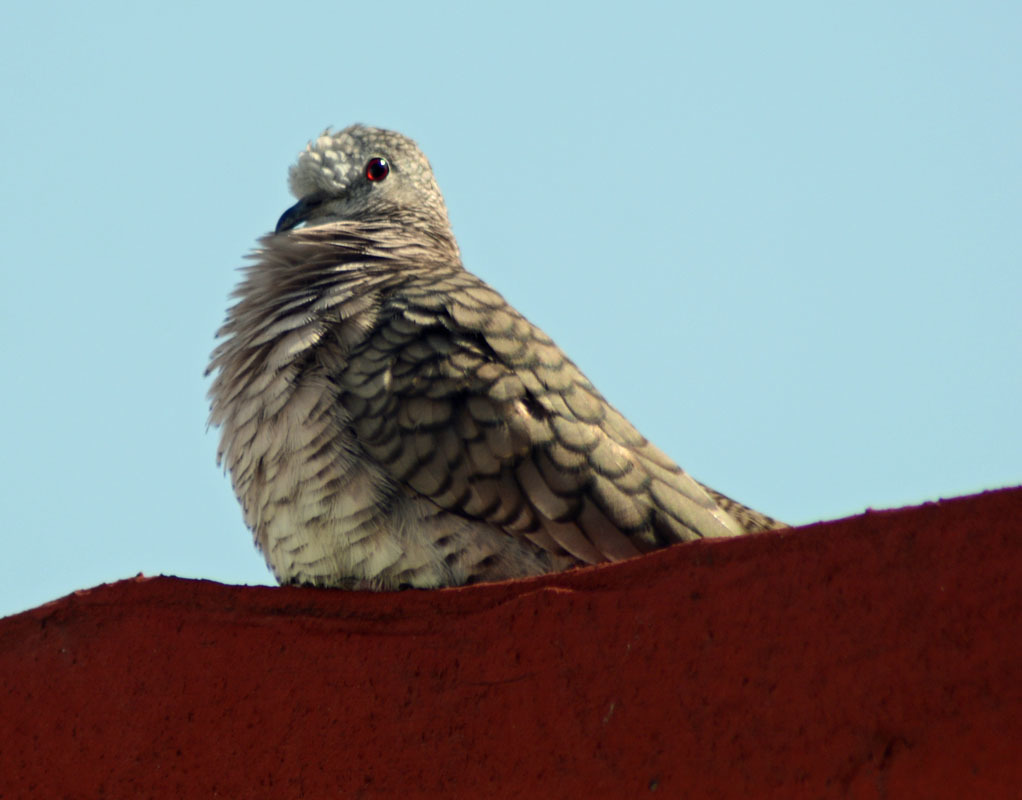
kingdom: Animalia
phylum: Chordata
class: Aves
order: Columbiformes
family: Columbidae
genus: Columbina
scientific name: Columbina inca
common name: Inca dove
